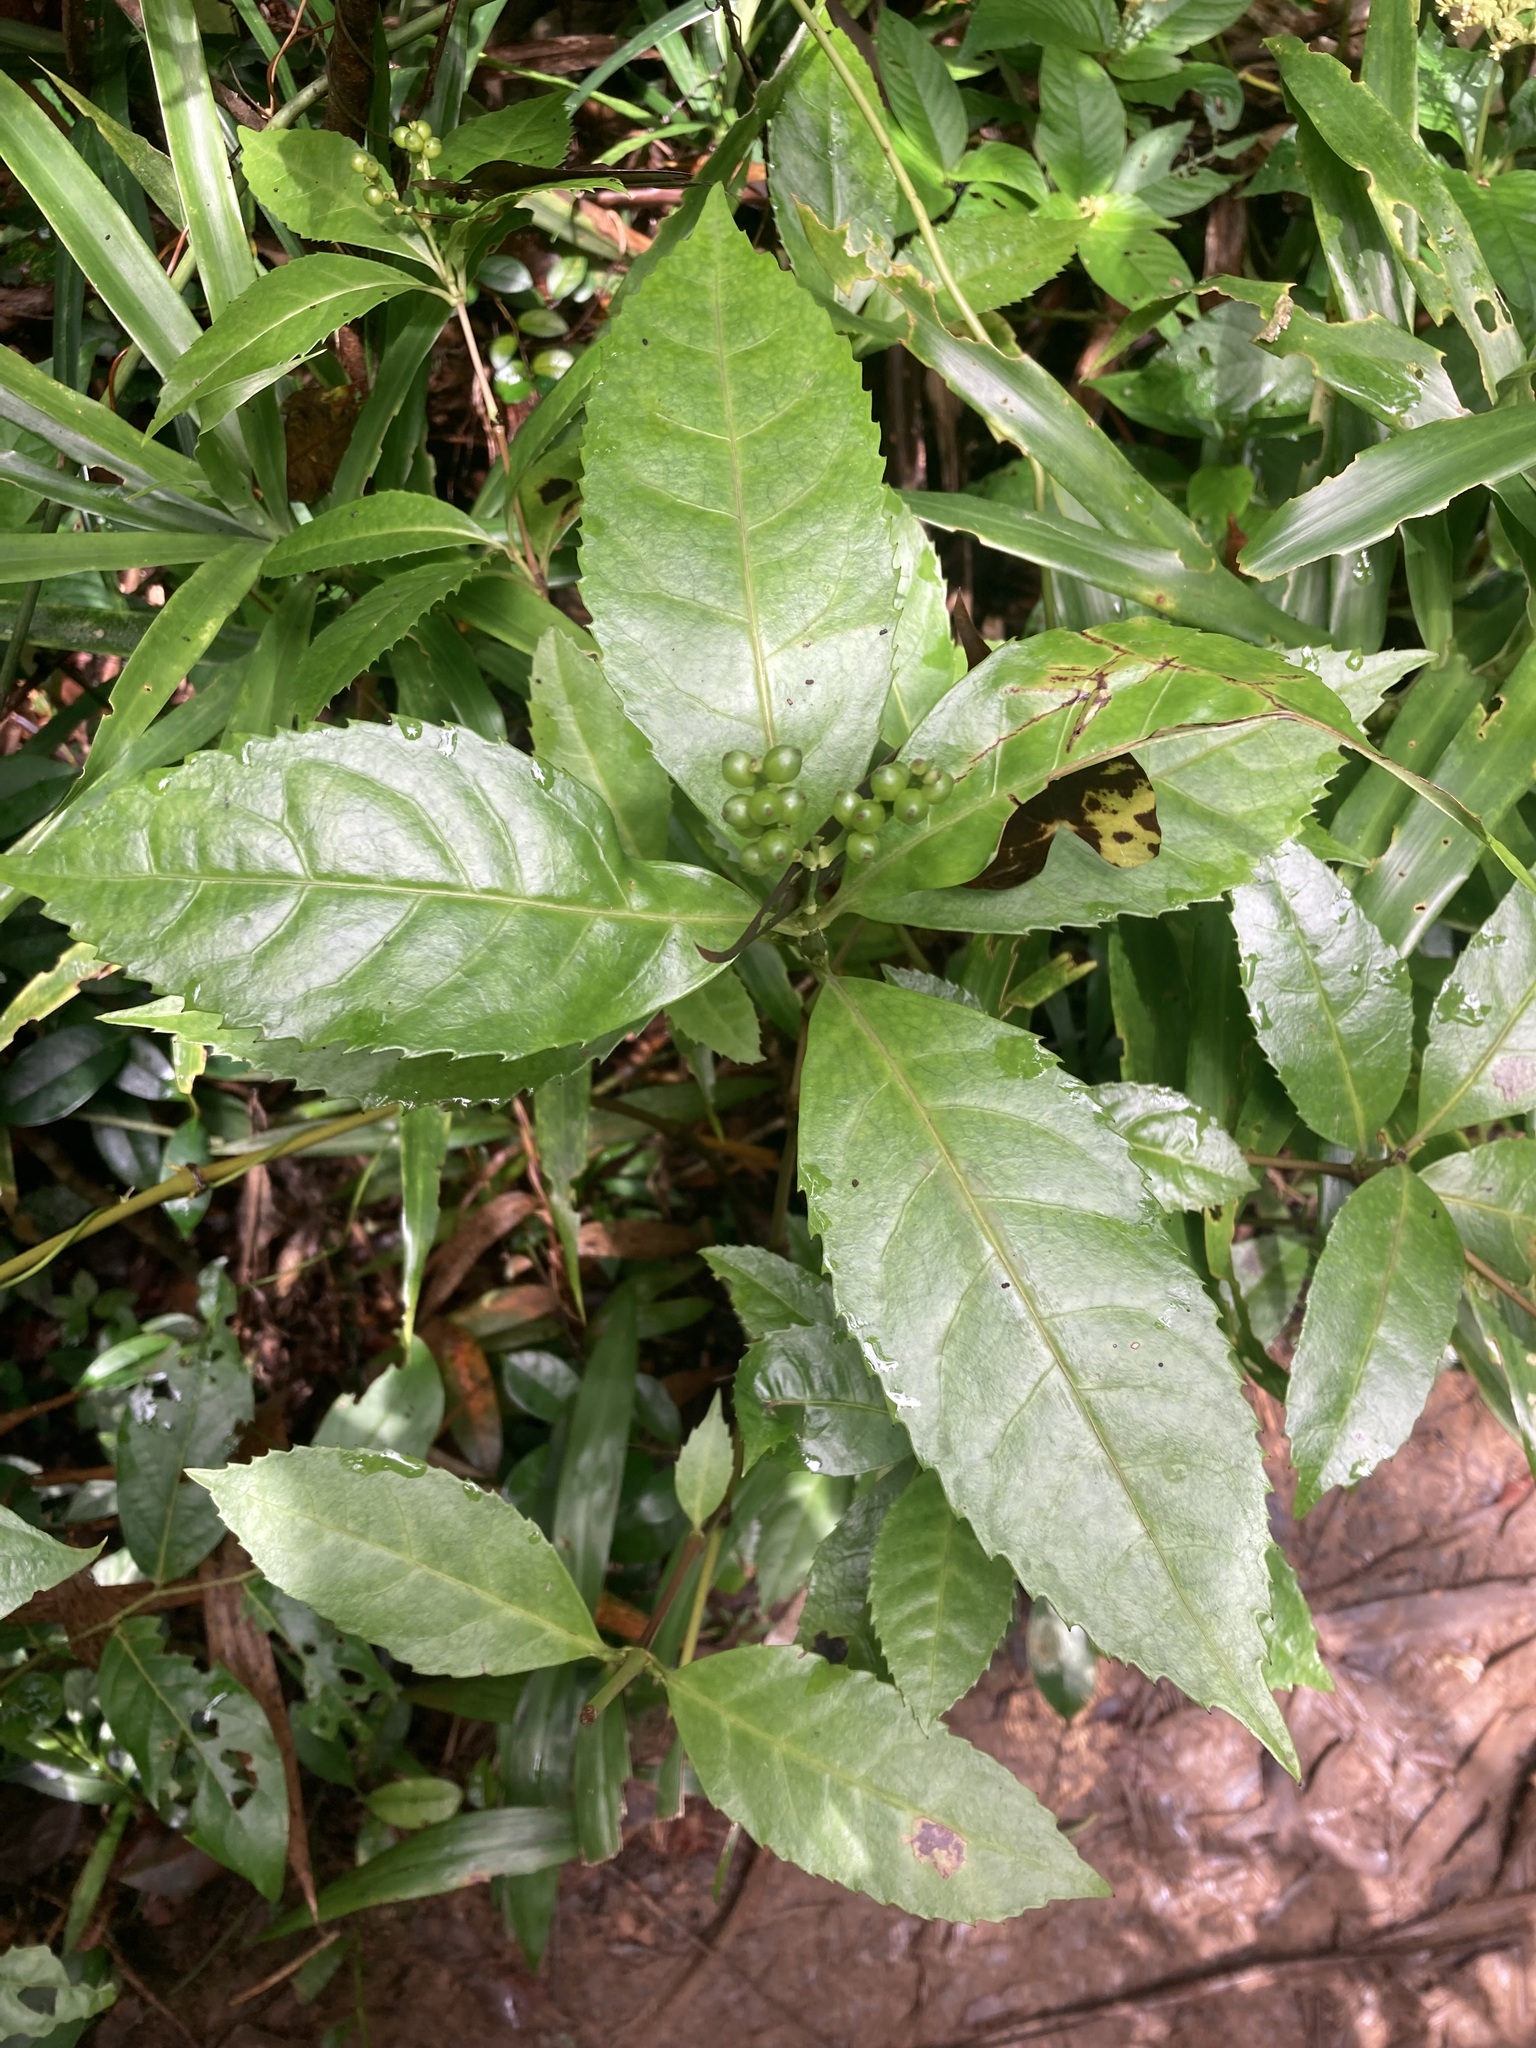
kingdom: Plantae
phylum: Tracheophyta
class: Magnoliopsida
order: Chloranthales
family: Chloranthaceae
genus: Sarcandra
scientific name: Sarcandra glabra
